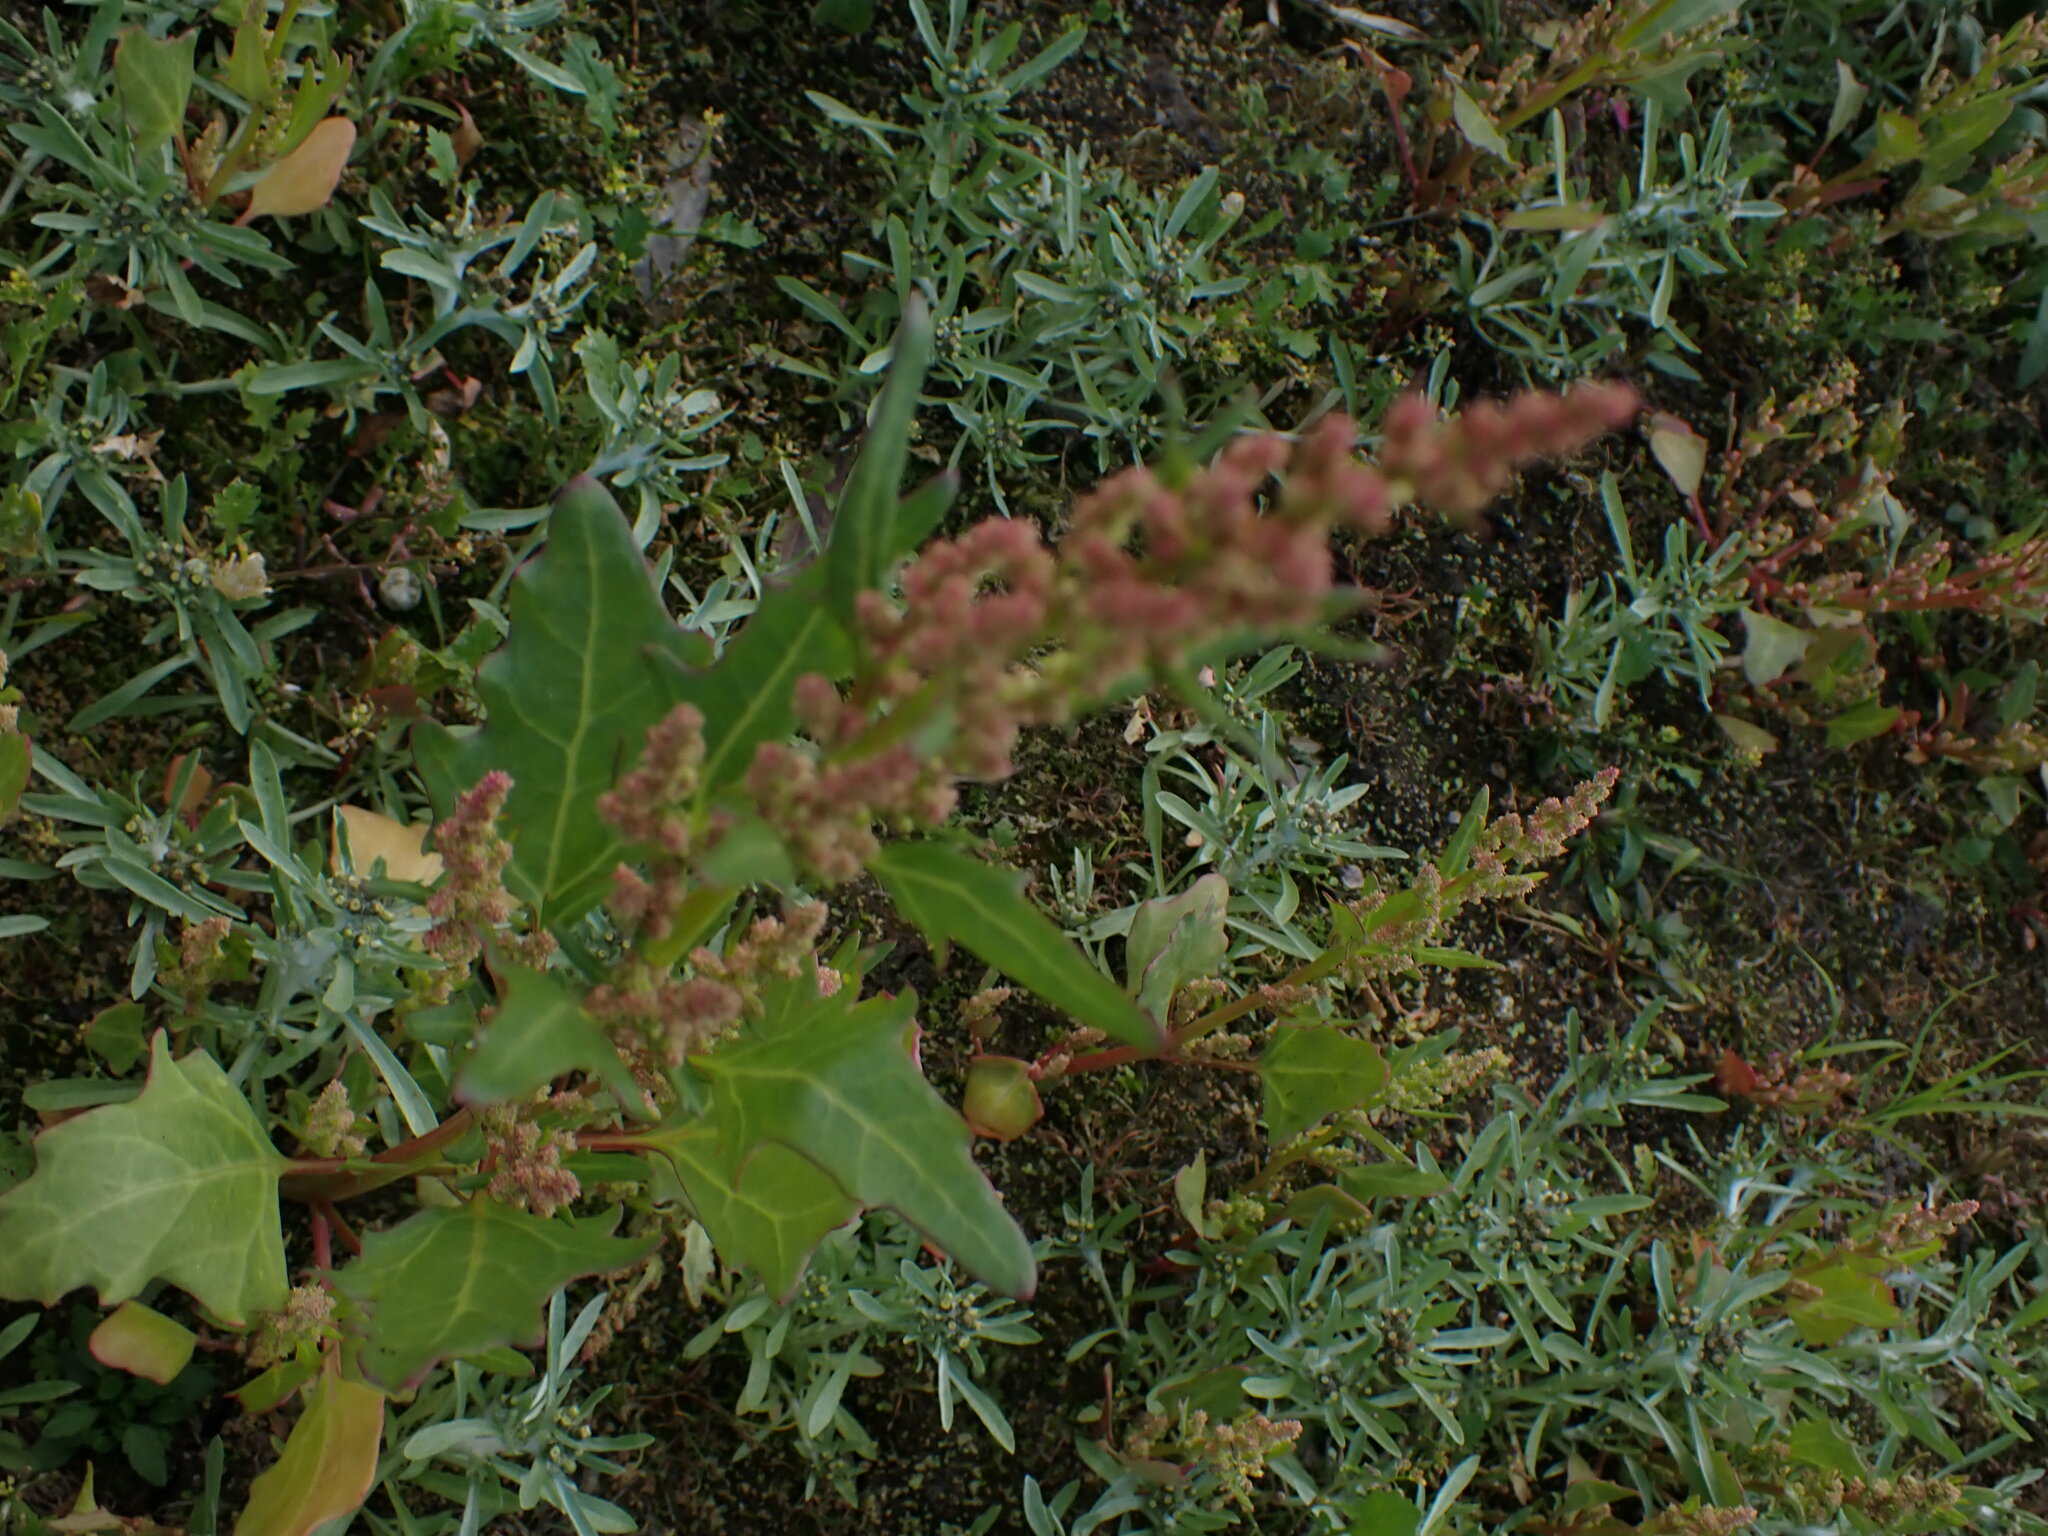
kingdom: Plantae
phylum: Tracheophyta
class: Magnoliopsida
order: Caryophyllales
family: Amaranthaceae
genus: Oxybasis
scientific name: Oxybasis rubra
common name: Red goosefoot
